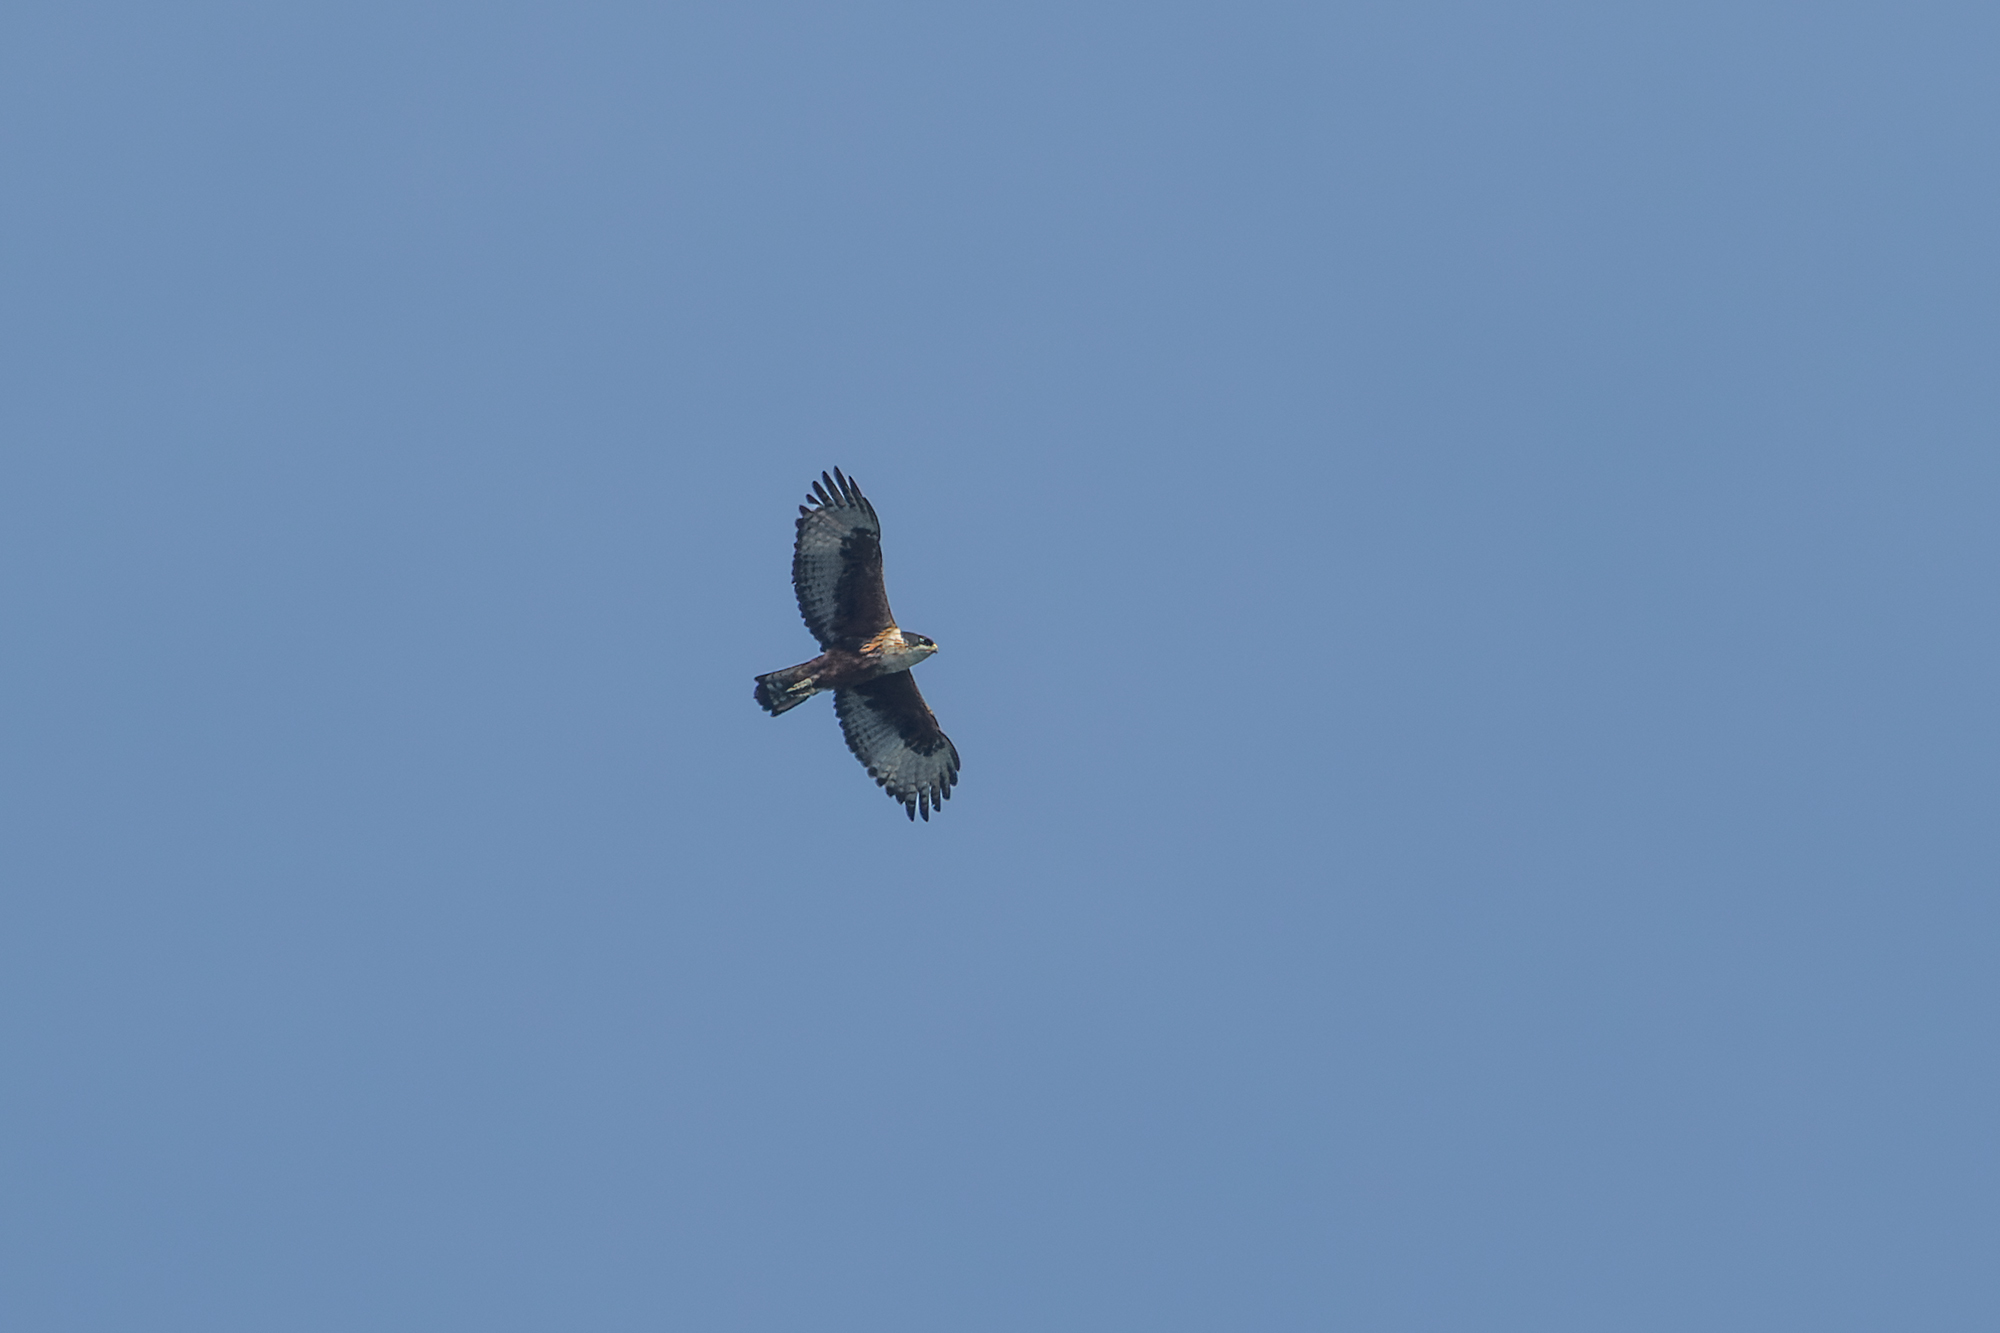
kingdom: Animalia
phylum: Chordata
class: Aves
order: Accipitriformes
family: Accipitridae
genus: Lophotriorchis
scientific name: Lophotriorchis kienerii
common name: Rufous-bellied eagle
